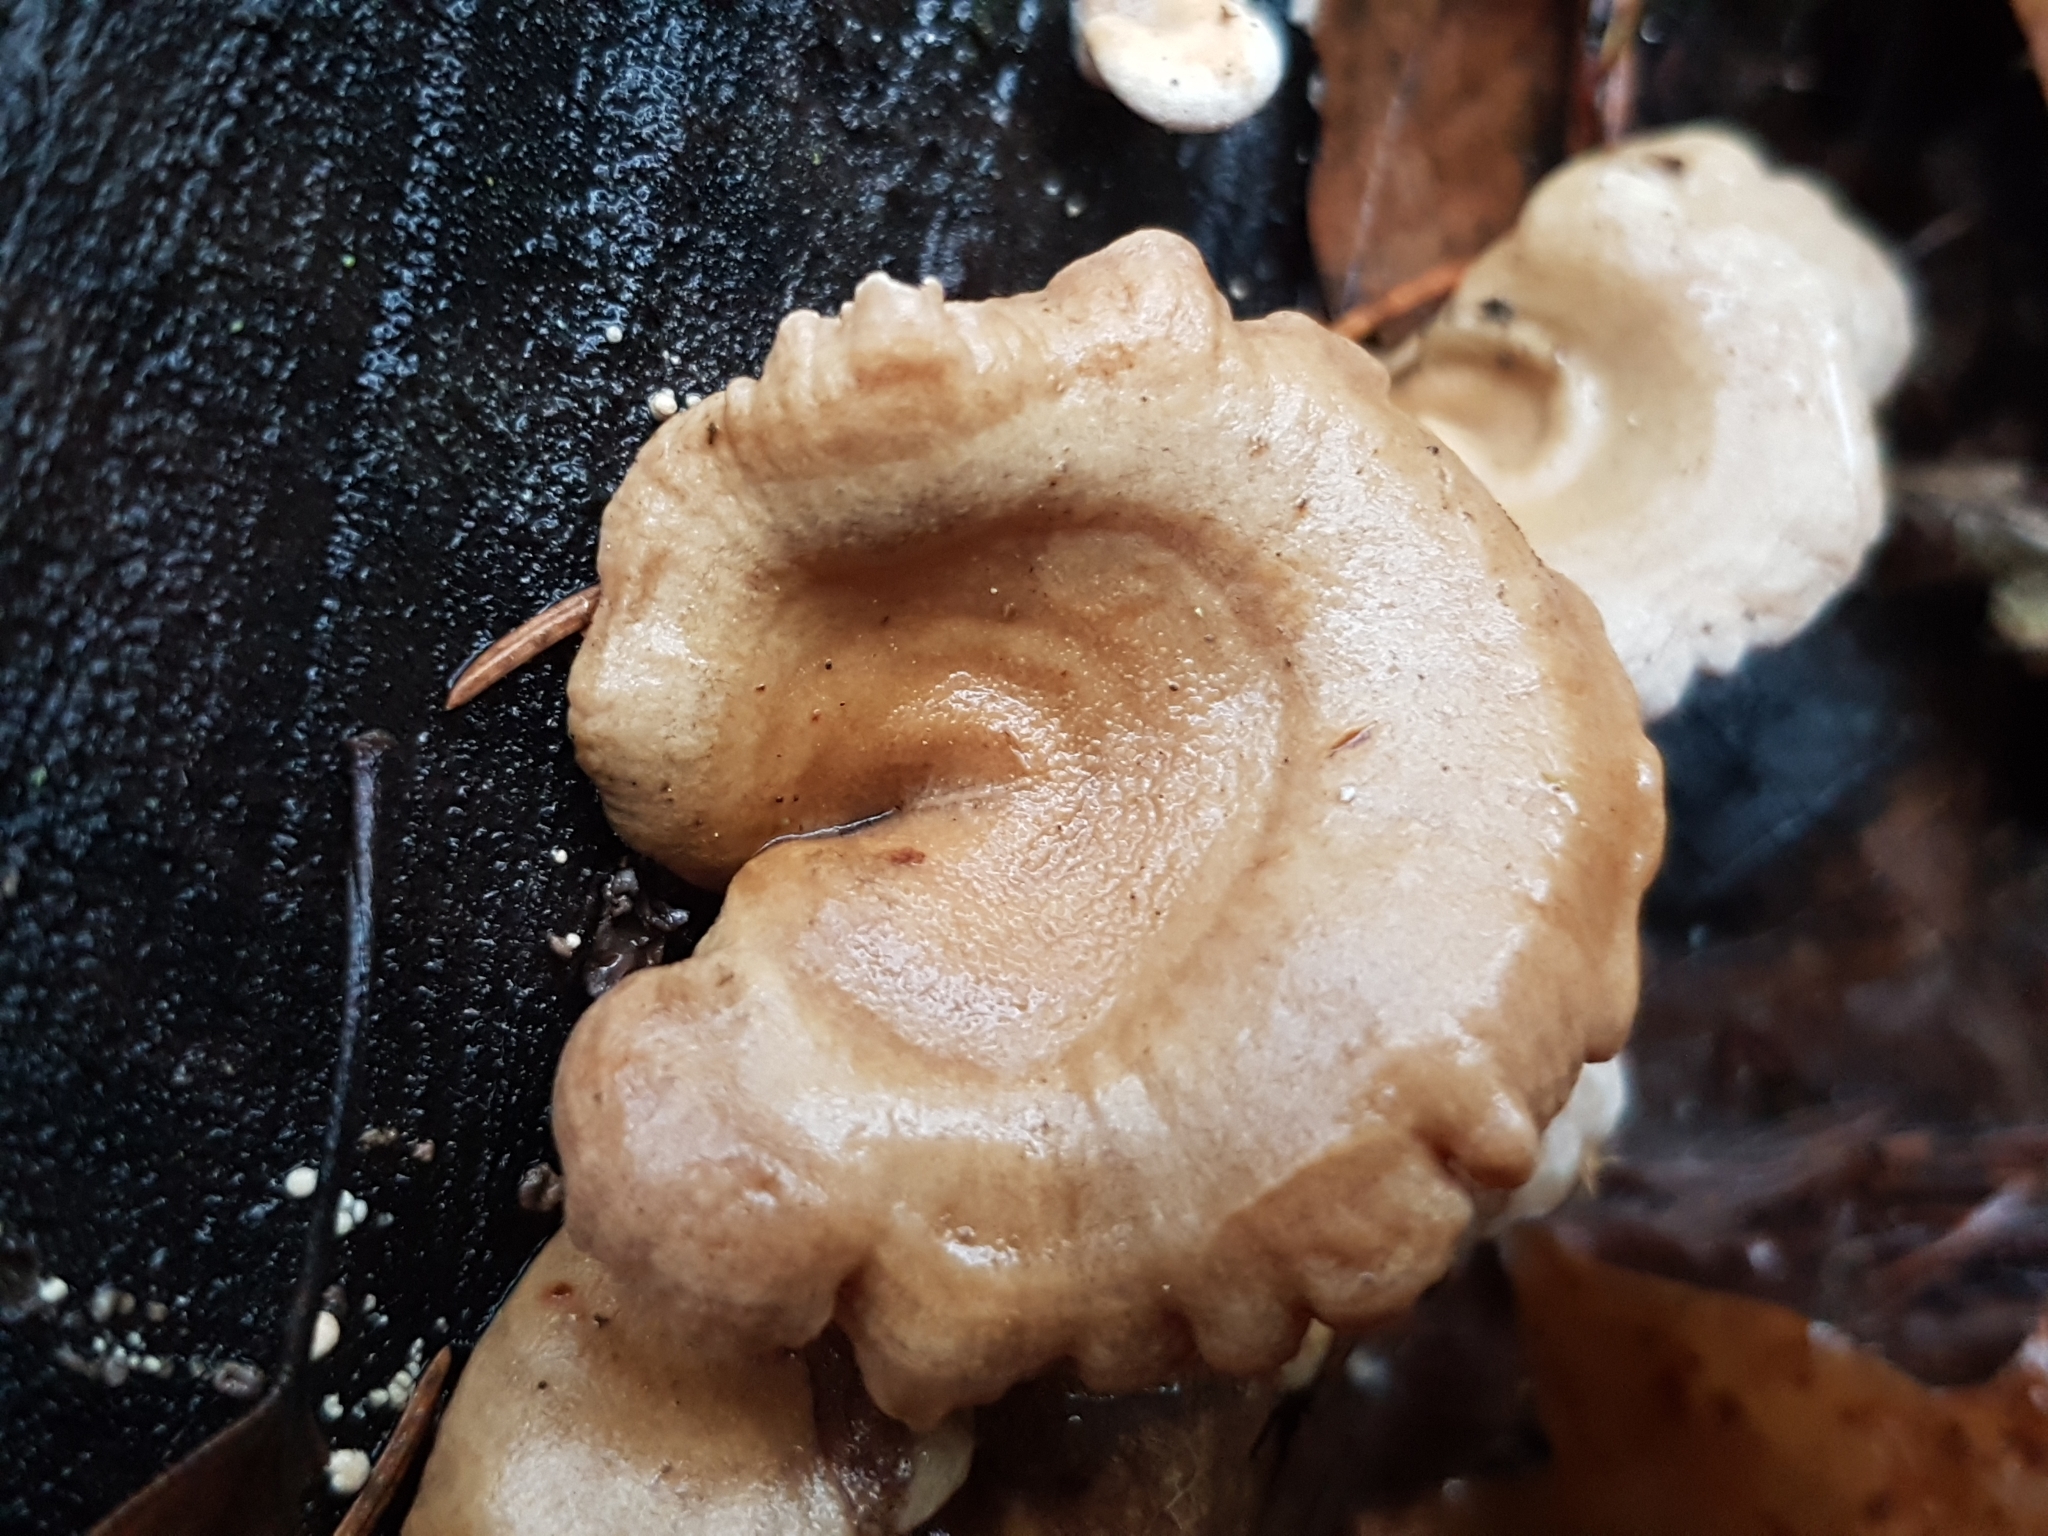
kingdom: Fungi
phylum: Basidiomycota
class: Agaricomycetes
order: Agaricales
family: Mycenaceae
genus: Panellus
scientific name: Panellus stipticus
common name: Bitter oysterling
